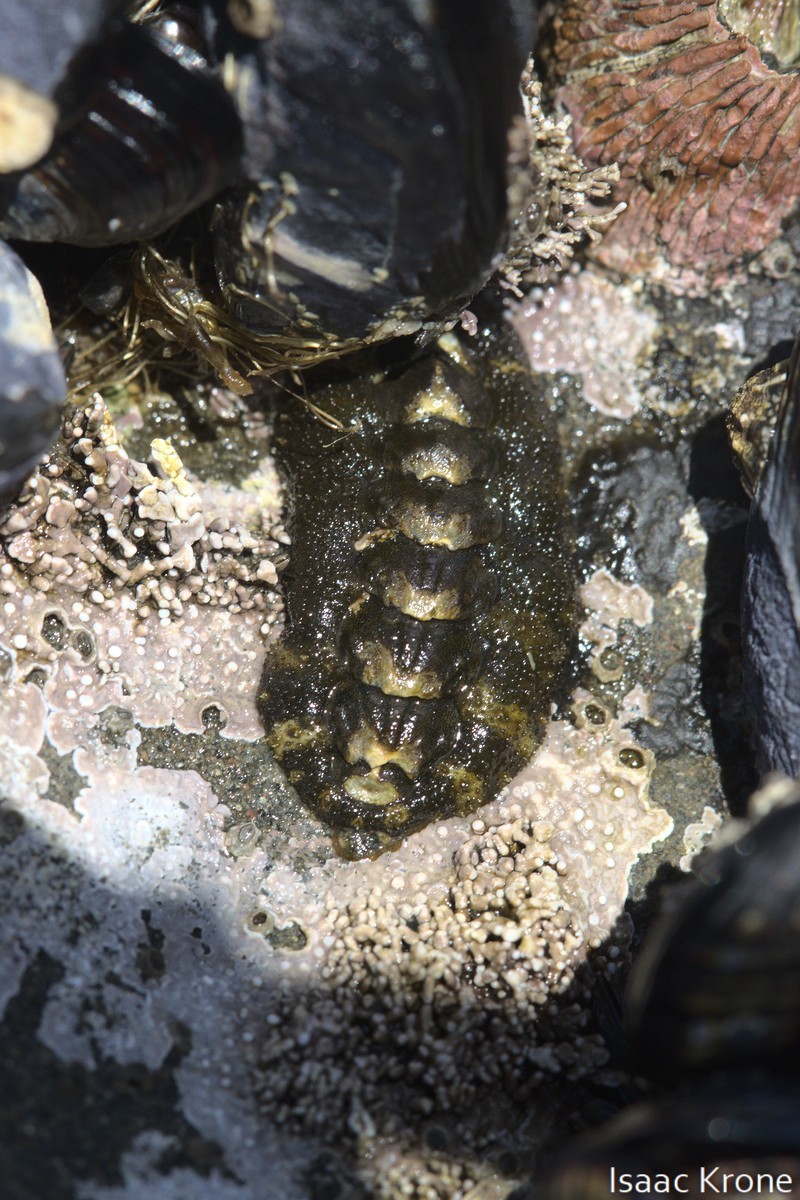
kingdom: Animalia
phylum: Mollusca
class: Polyplacophora
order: Chitonida
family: Tonicellidae
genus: Nuttallina
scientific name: Nuttallina californica
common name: California nuttall chiton
